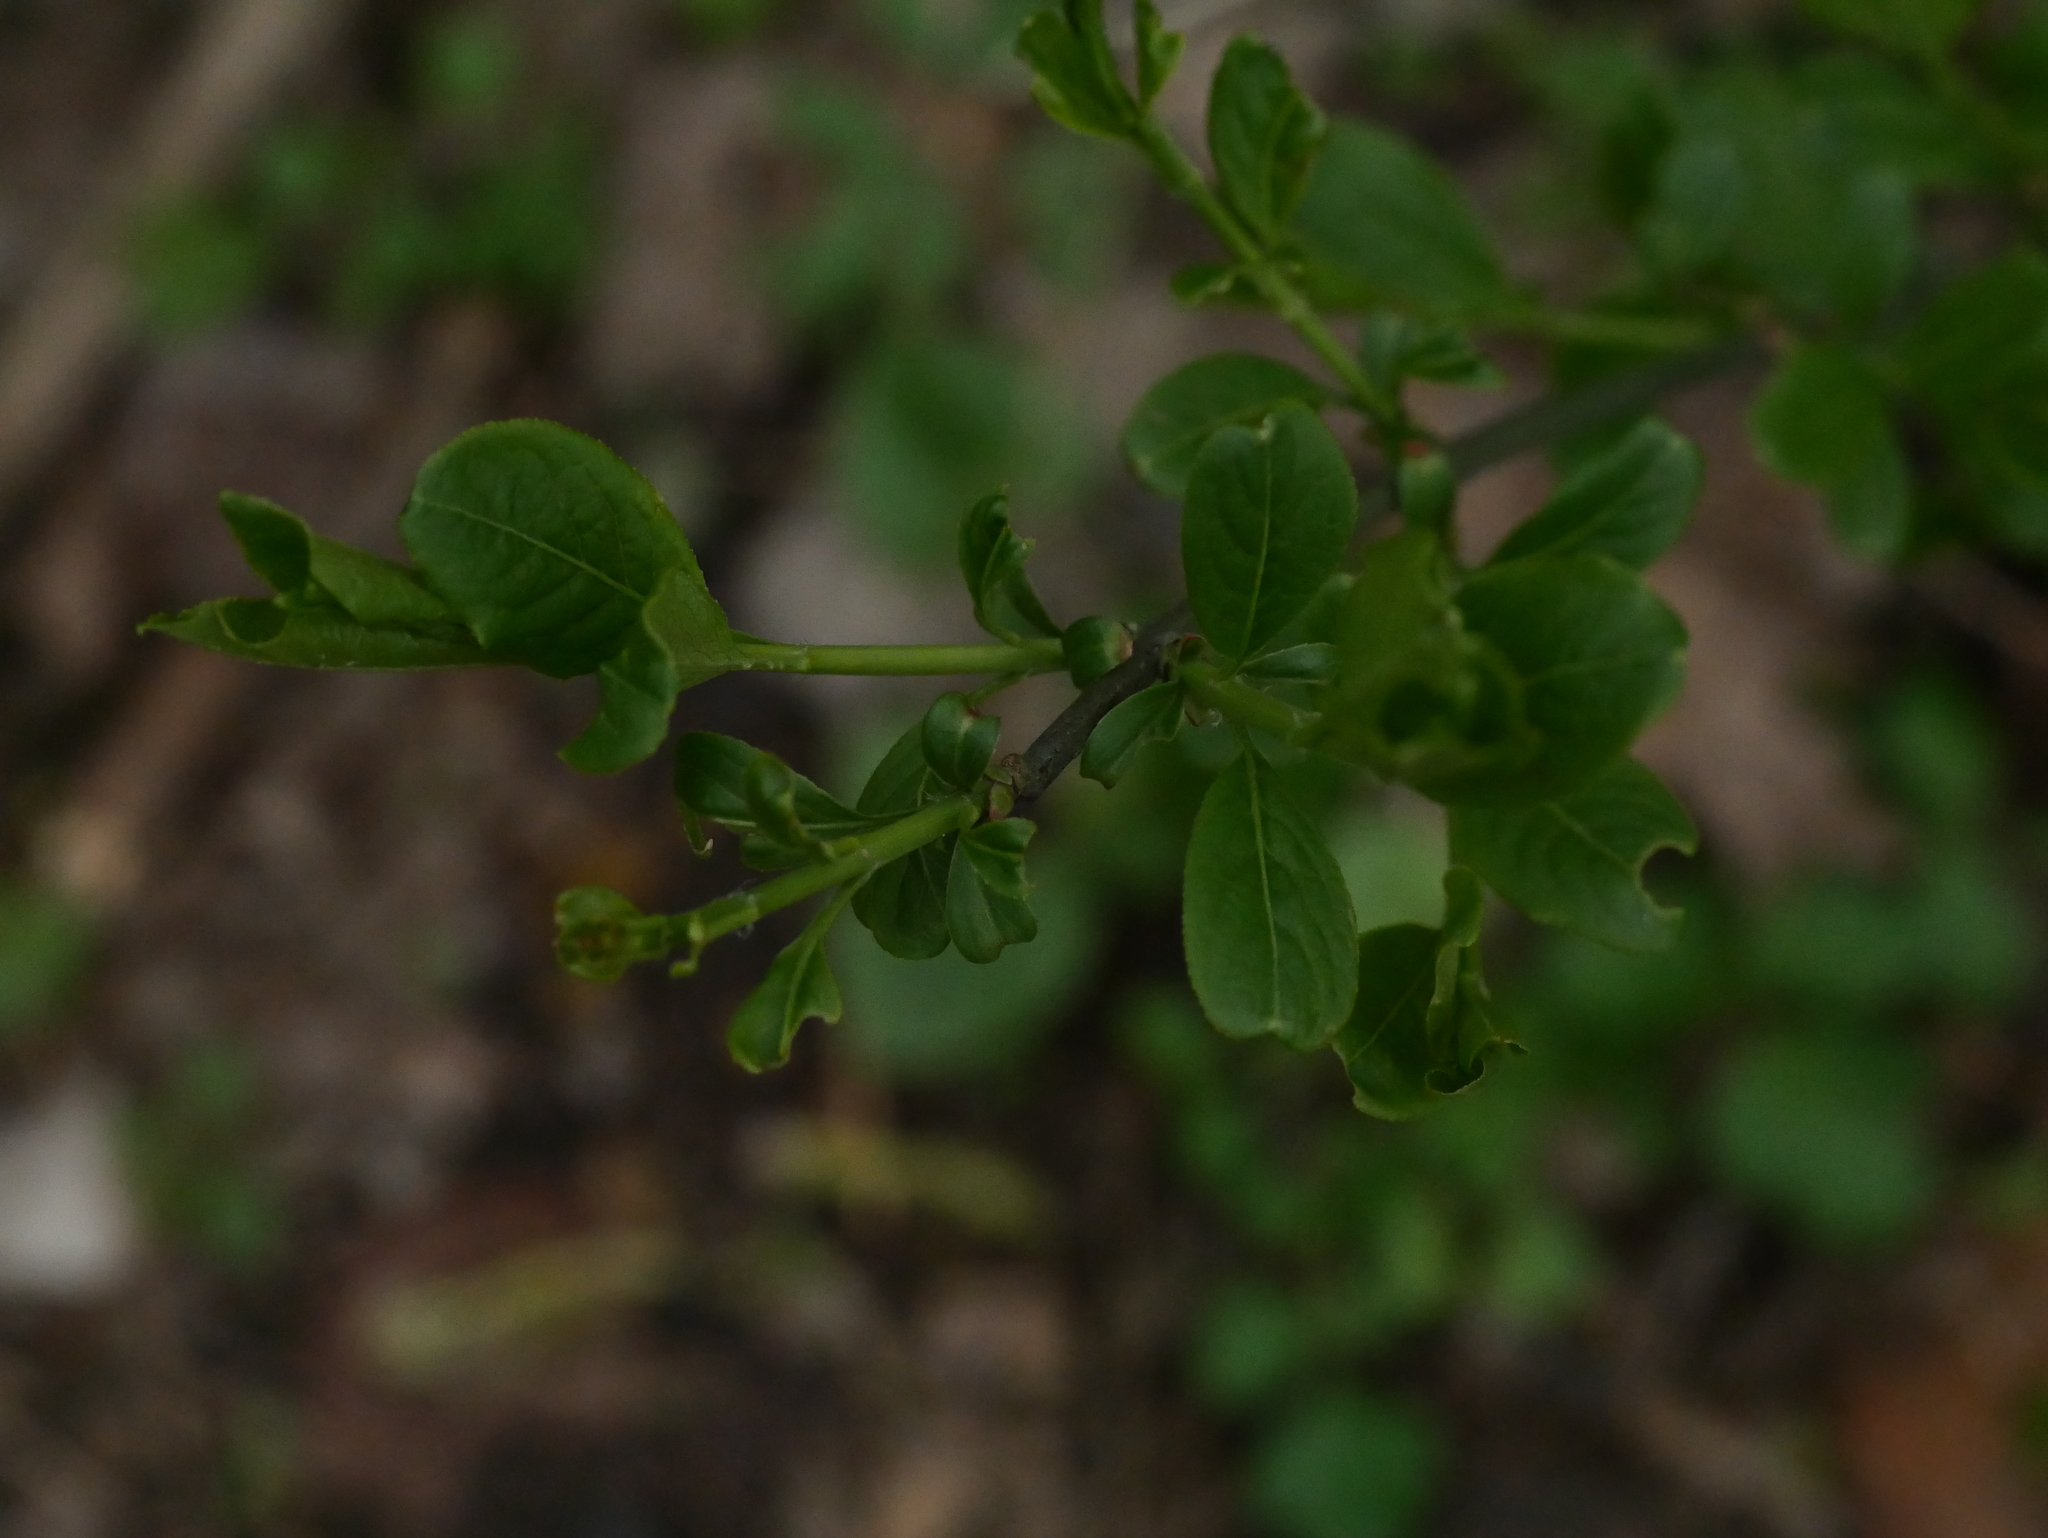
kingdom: Plantae
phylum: Tracheophyta
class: Magnoliopsida
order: Celastrales
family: Celastraceae
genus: Euonymus
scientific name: Euonymus europaeus
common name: Spindle
